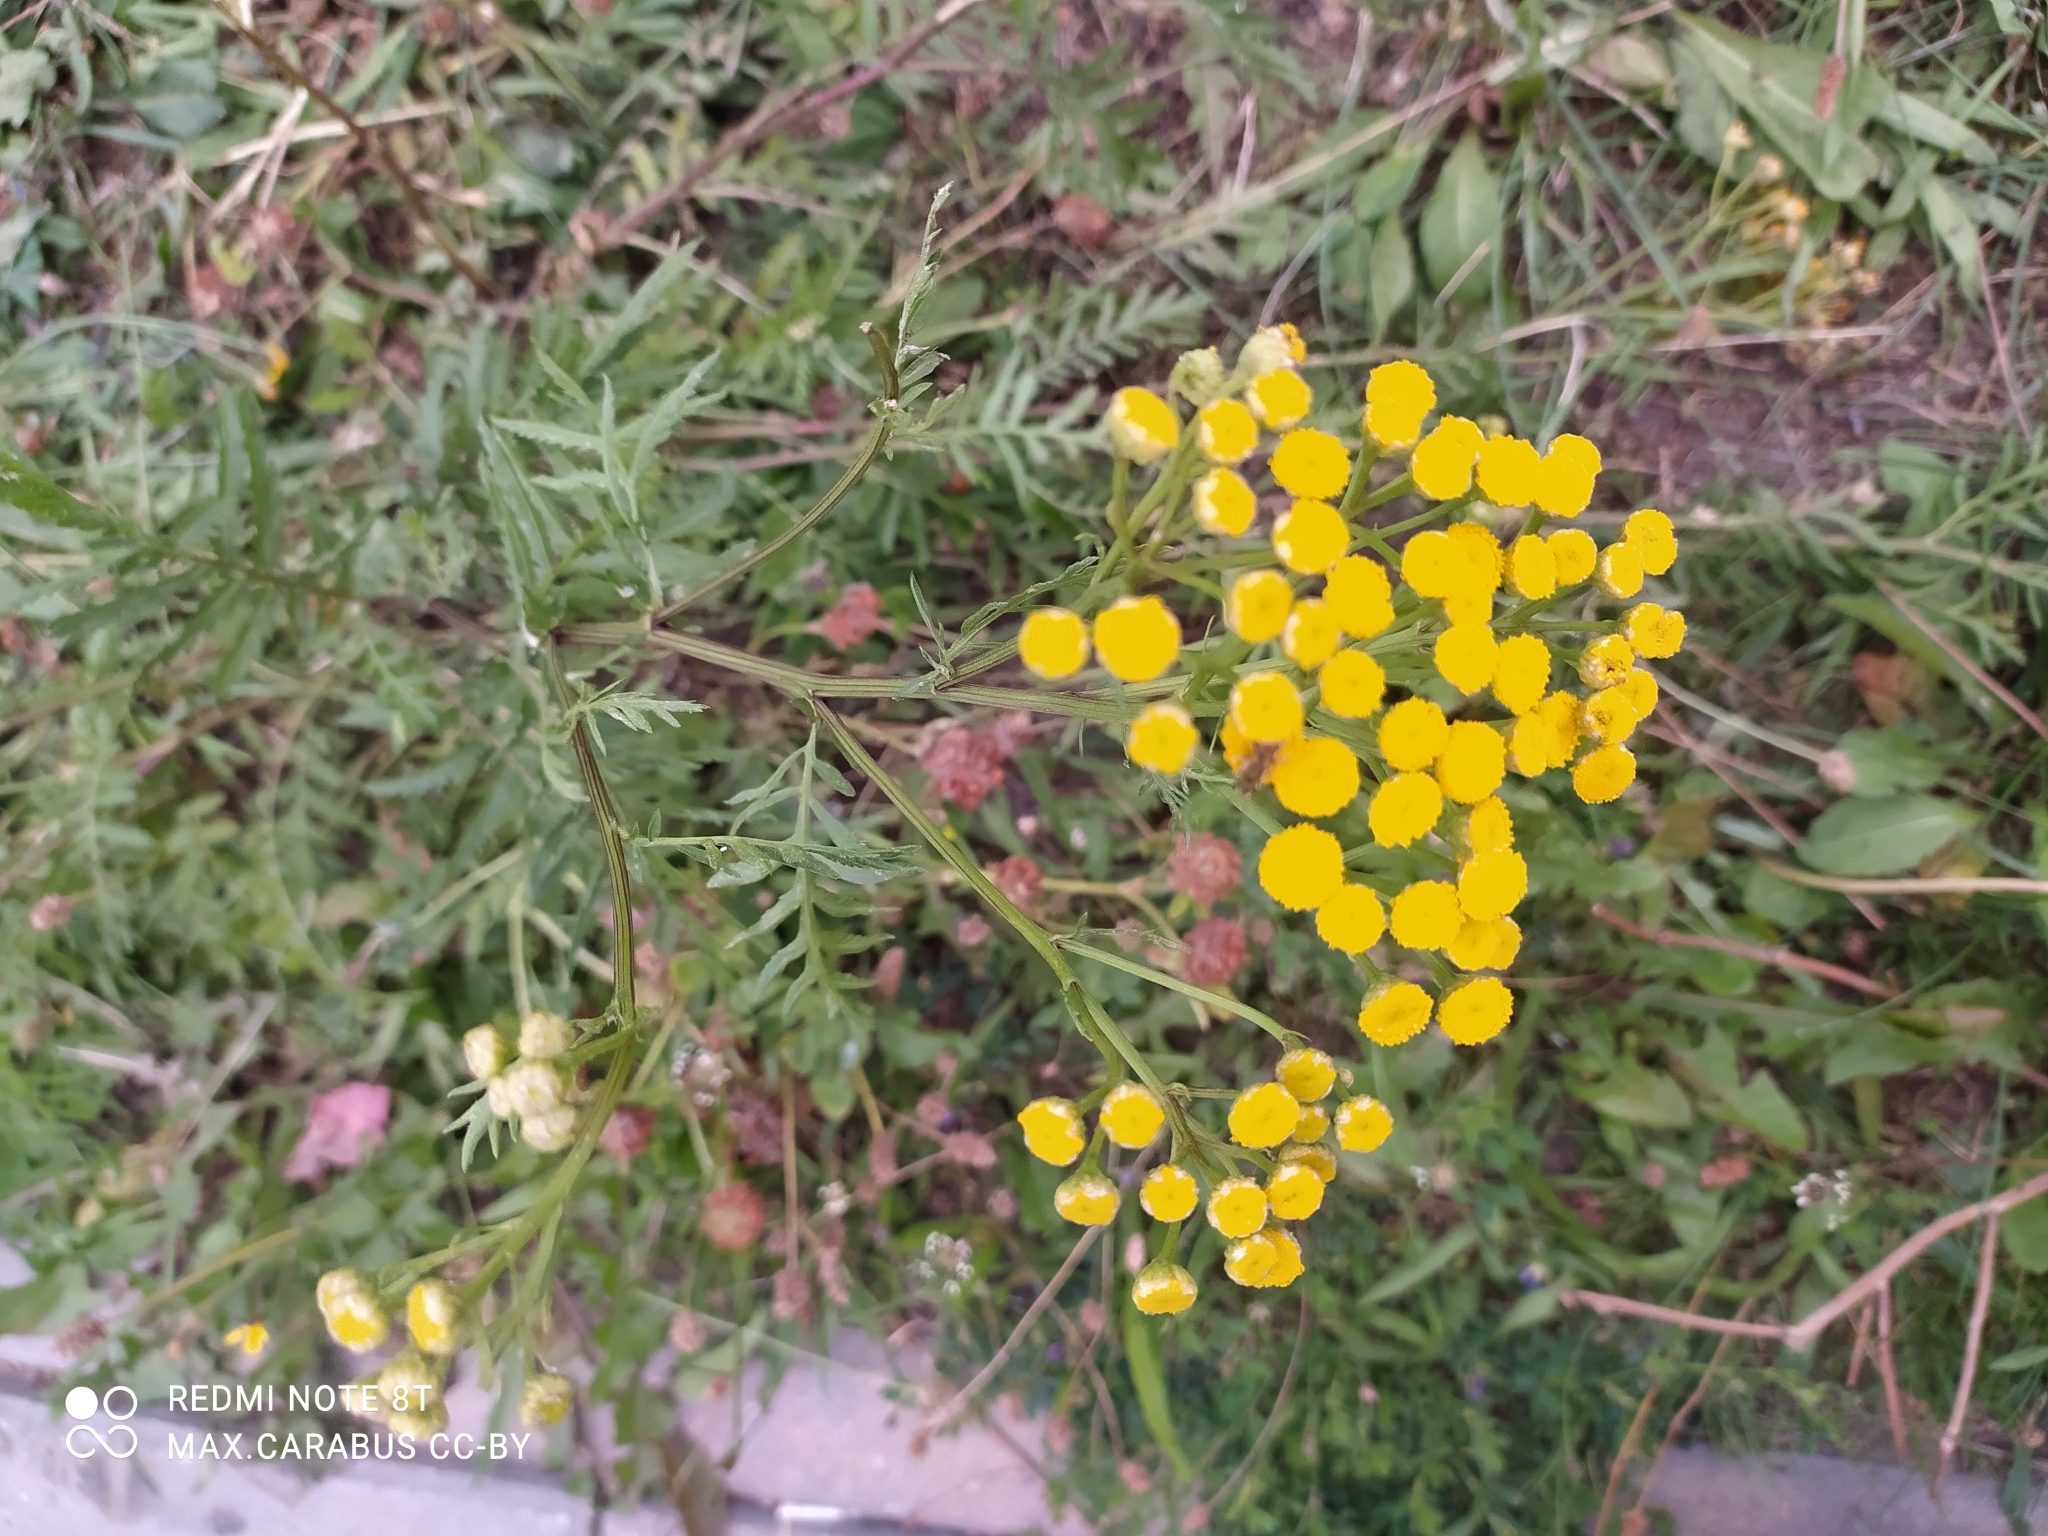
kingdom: Plantae
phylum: Tracheophyta
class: Magnoliopsida
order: Asterales
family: Asteraceae
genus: Tanacetum
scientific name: Tanacetum vulgare
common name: Common tansy
